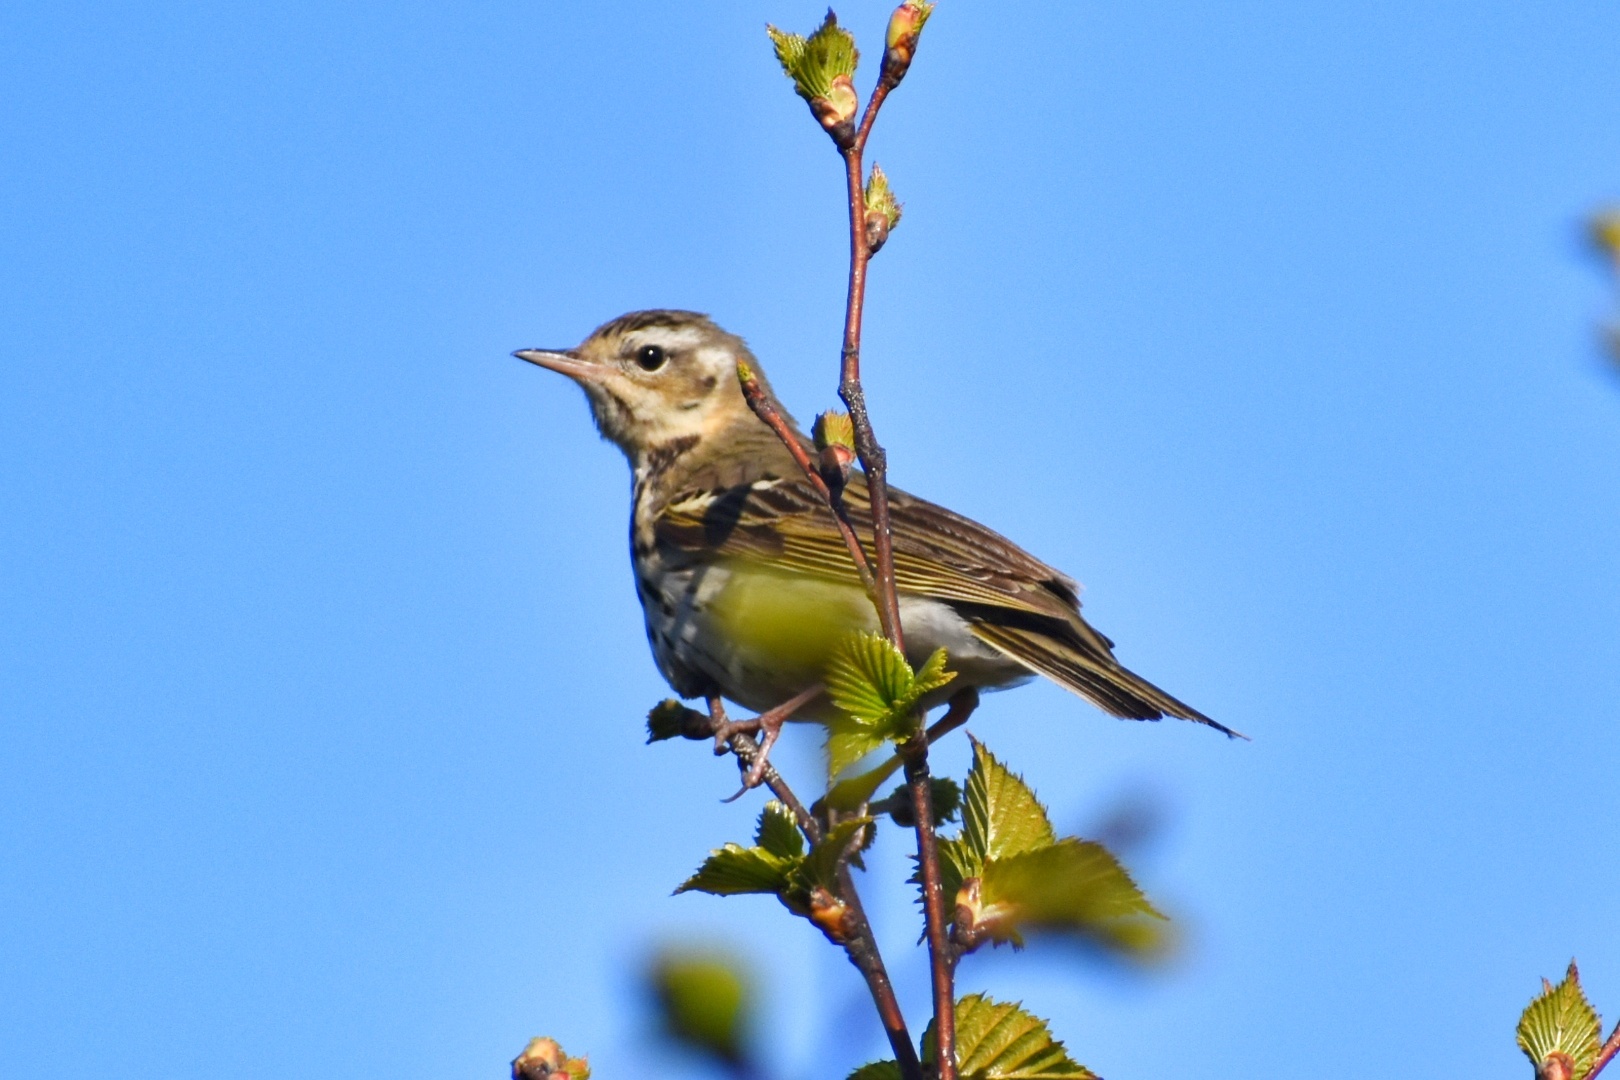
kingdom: Animalia
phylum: Chordata
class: Aves
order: Passeriformes
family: Motacillidae
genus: Anthus
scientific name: Anthus hodgsoni
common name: Olive-backed pipit
